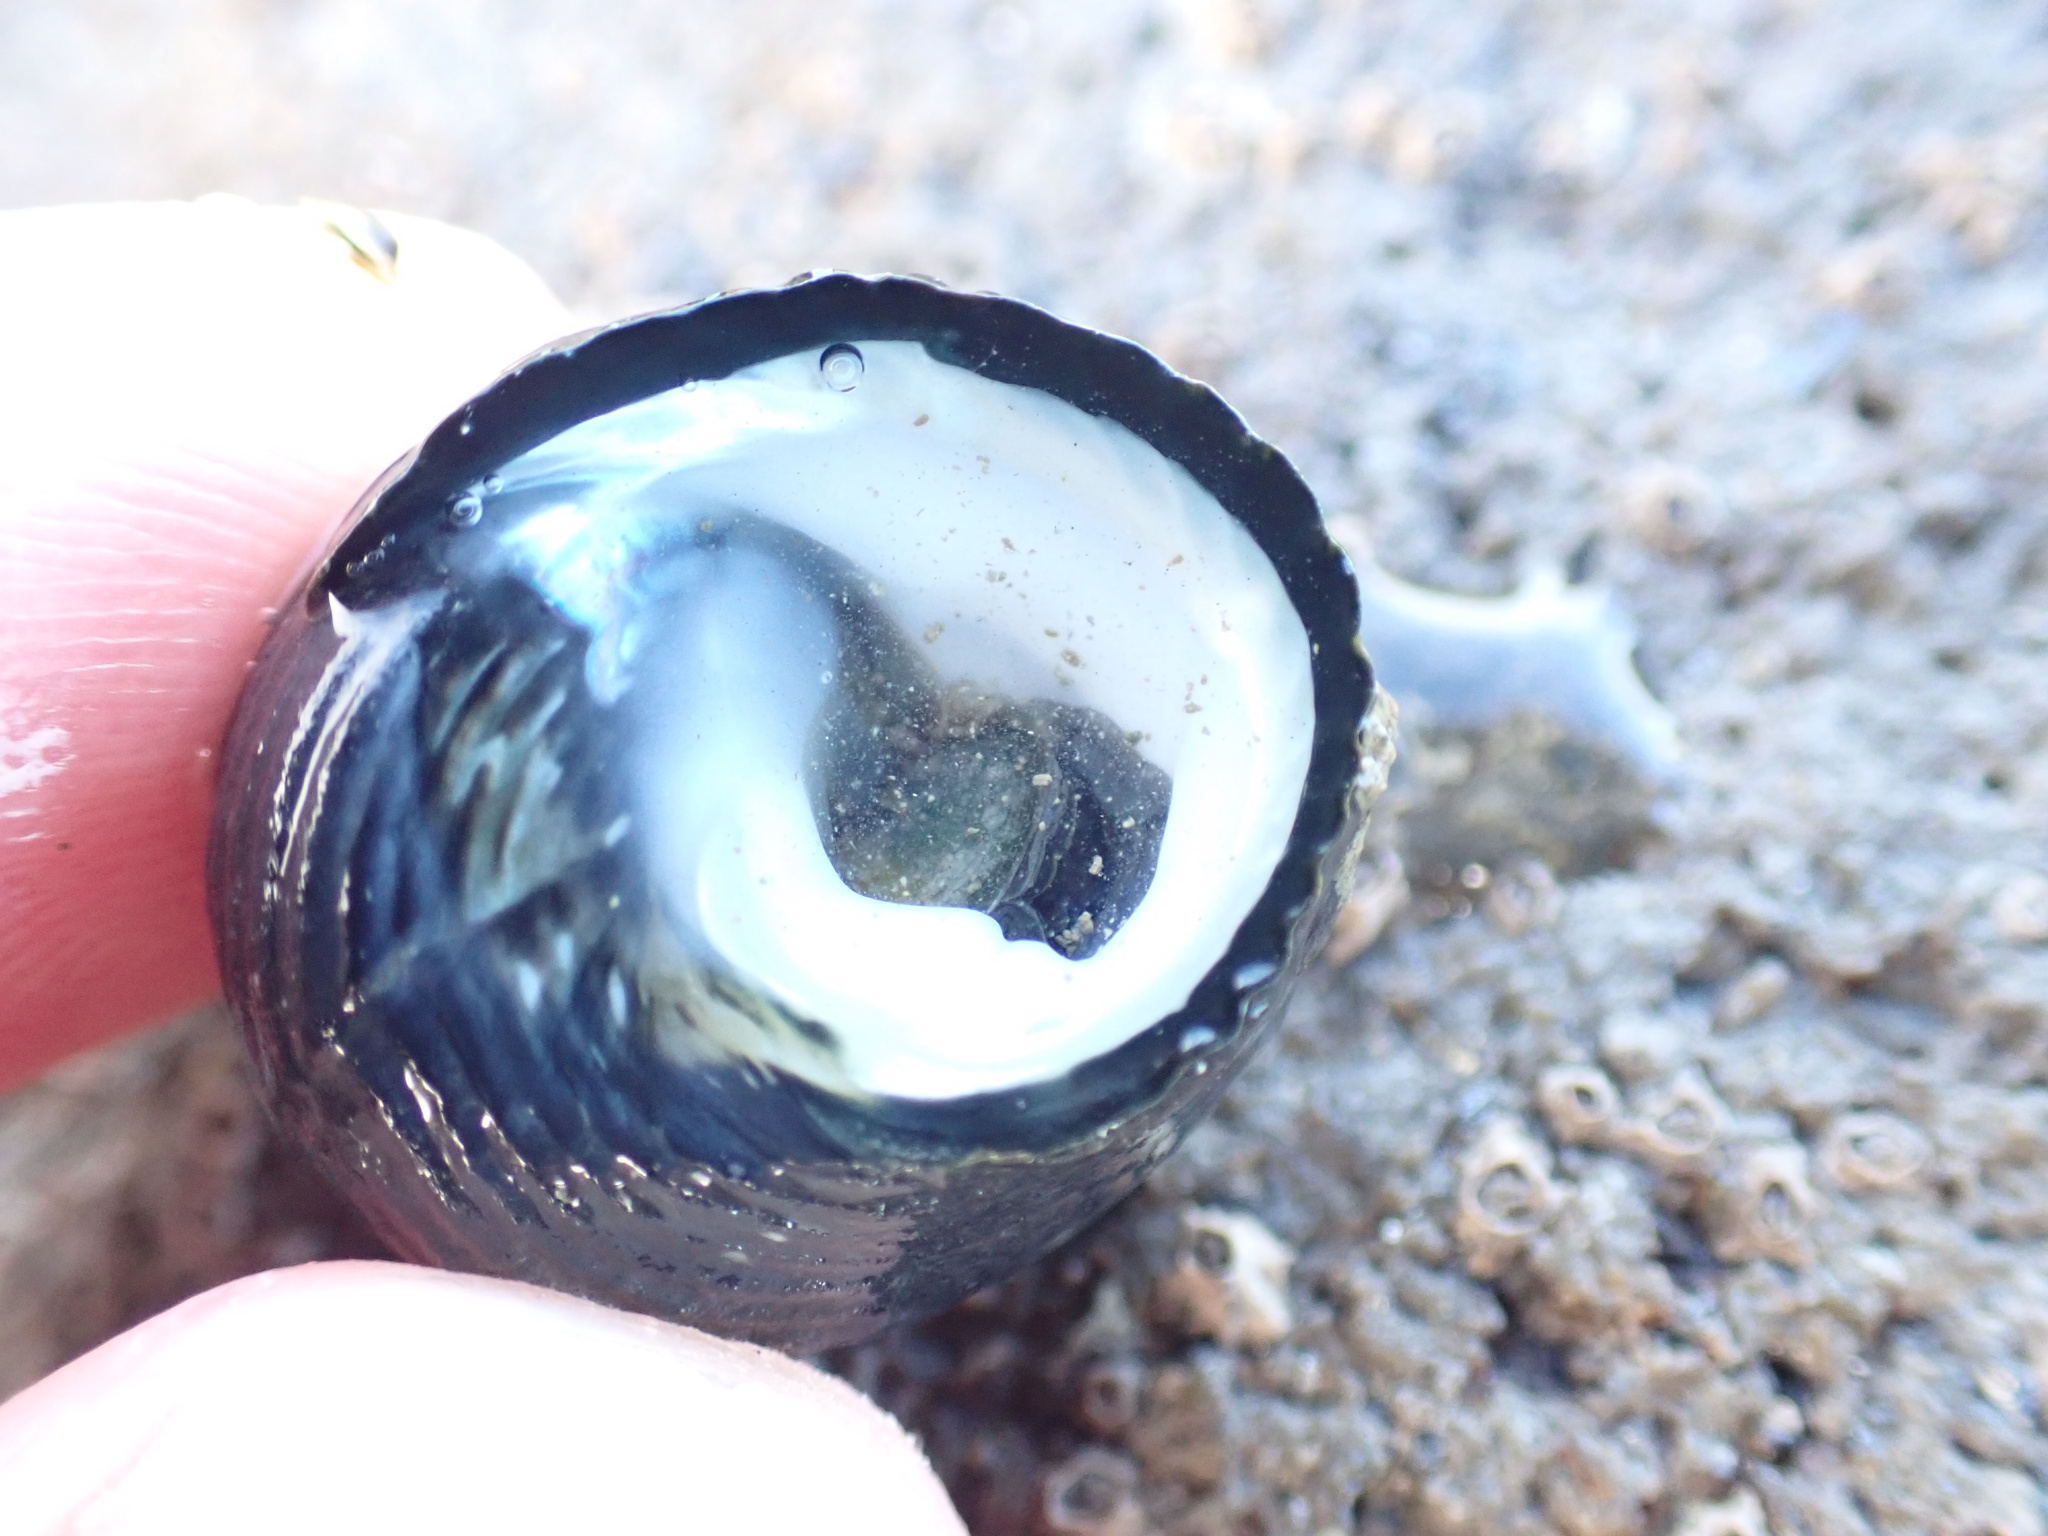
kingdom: Animalia
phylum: Mollusca
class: Gastropoda
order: Trochida
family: Trochidae
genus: Diloma
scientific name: Diloma zelandicum
